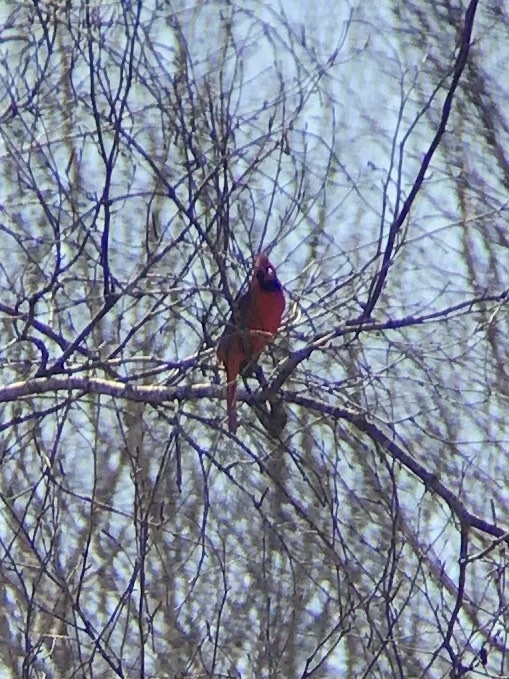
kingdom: Animalia
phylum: Chordata
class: Aves
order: Passeriformes
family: Cardinalidae
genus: Cardinalis
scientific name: Cardinalis cardinalis
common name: Northern cardinal
